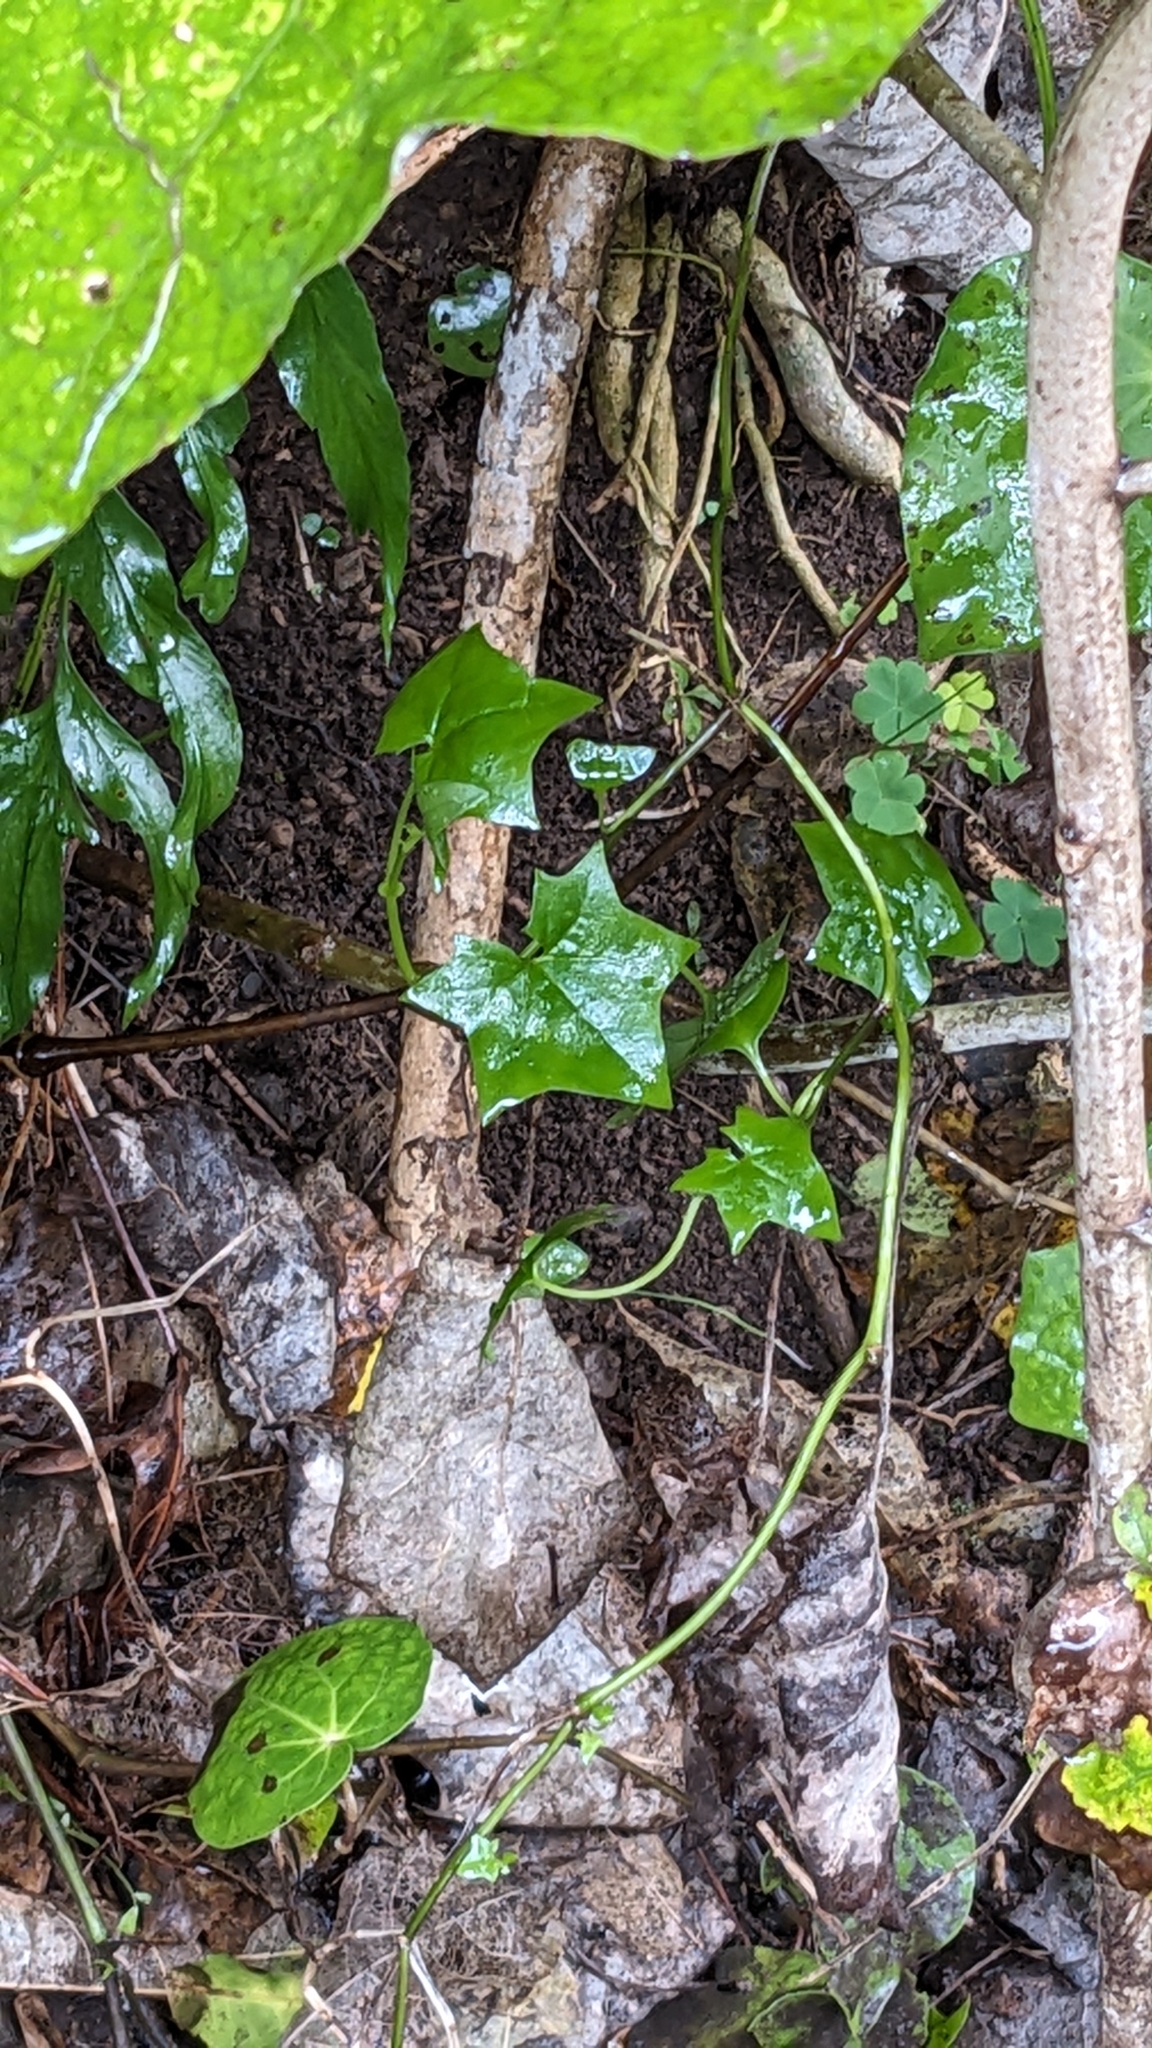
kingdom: Plantae
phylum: Tracheophyta
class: Magnoliopsida
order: Asterales
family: Asteraceae
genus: Delairea
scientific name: Delairea odorata
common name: Cape-ivy
